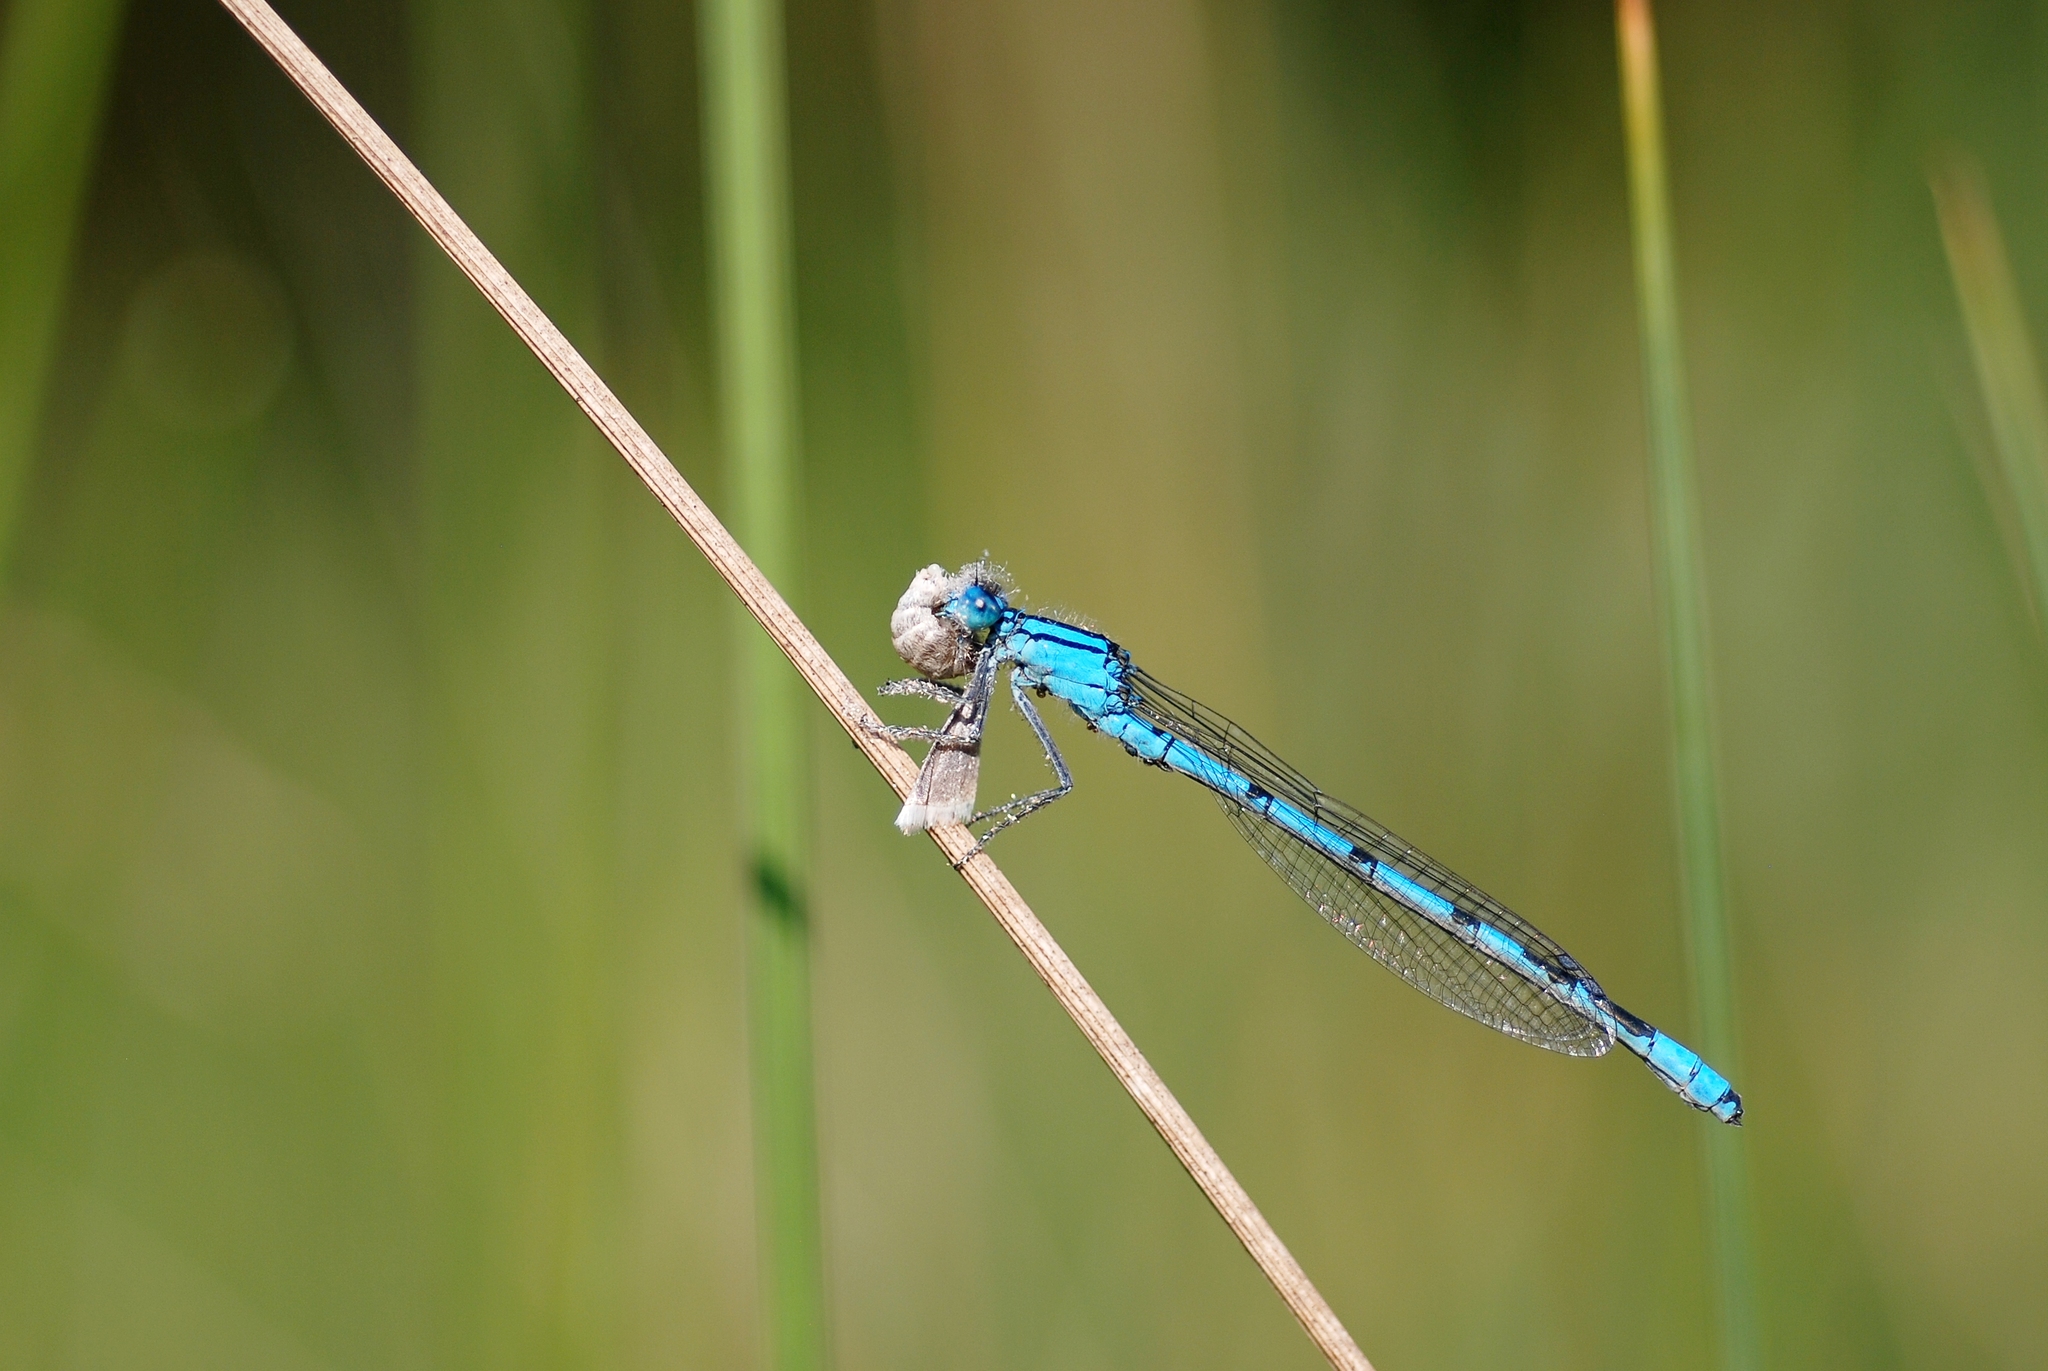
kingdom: Animalia
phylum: Arthropoda
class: Insecta
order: Odonata
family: Coenagrionidae
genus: Enallagma
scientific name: Enallagma cyathigerum
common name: Common blue damselfly
